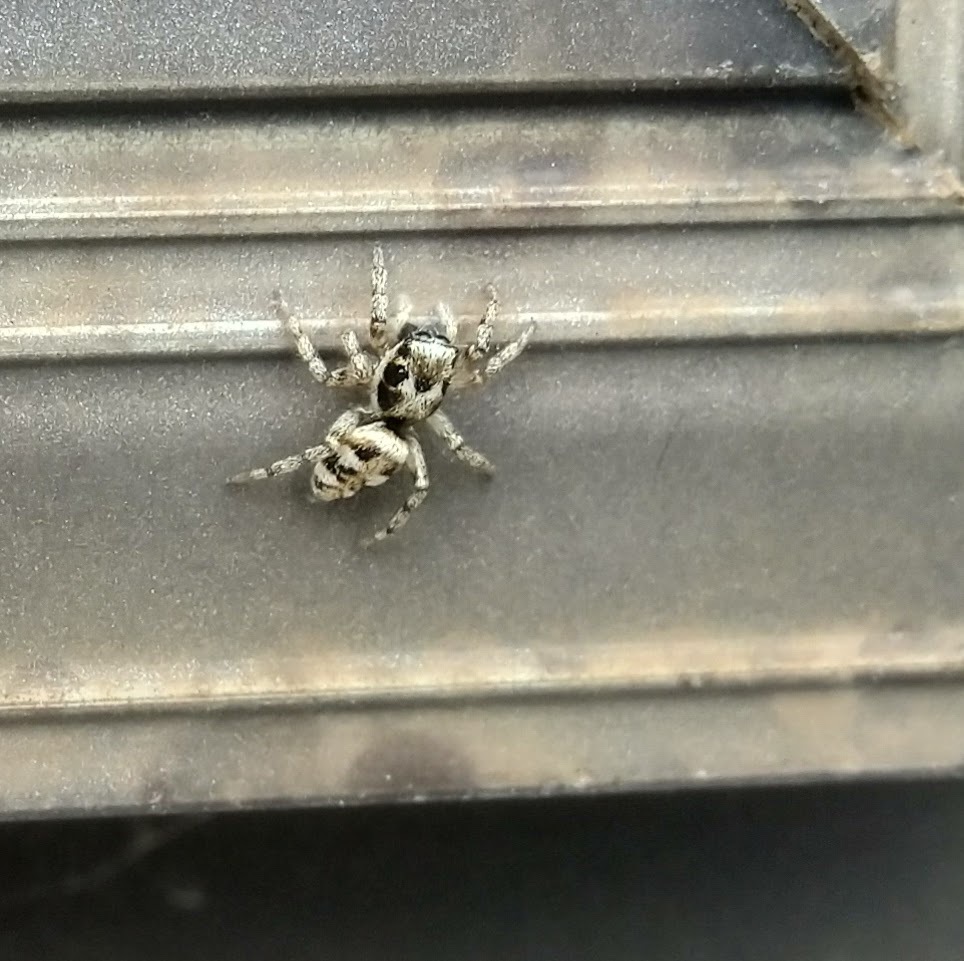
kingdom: Animalia
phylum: Arthropoda
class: Arachnida
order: Araneae
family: Salticidae
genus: Salticus
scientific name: Salticus scenicus
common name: Zebra jumper
